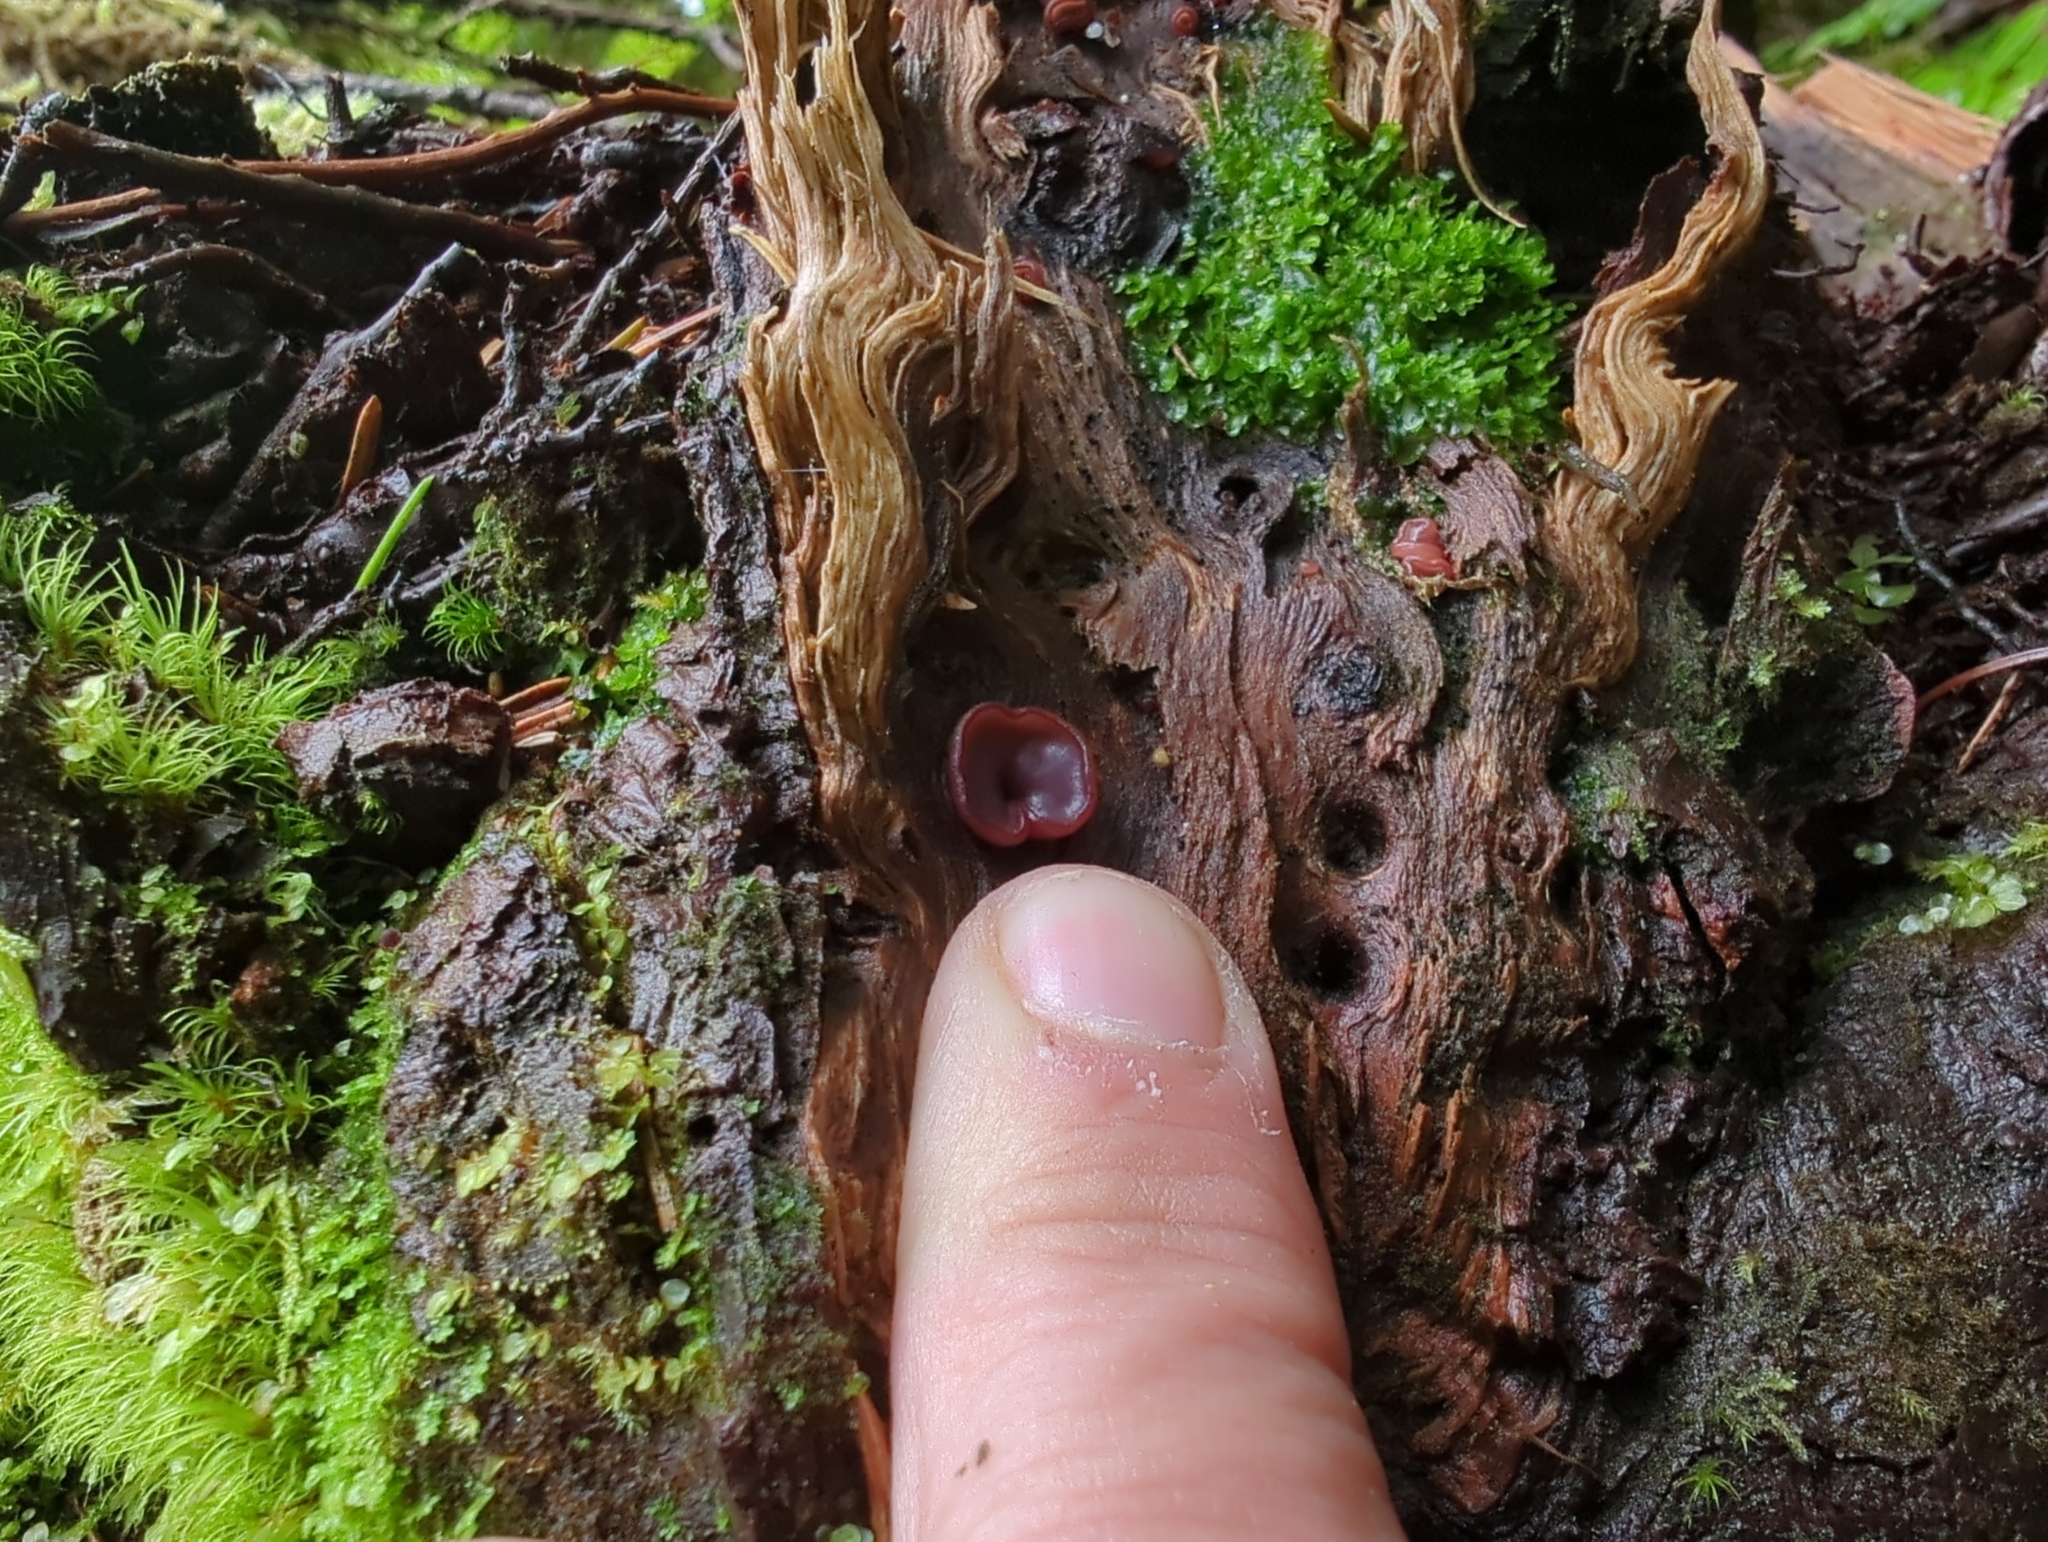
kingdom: Fungi
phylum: Ascomycota
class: Leotiomycetes
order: Helotiales
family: Gelatinodiscaceae
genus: Ascocoryne
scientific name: Ascocoryne sarcoides
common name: Purple jellydisc
